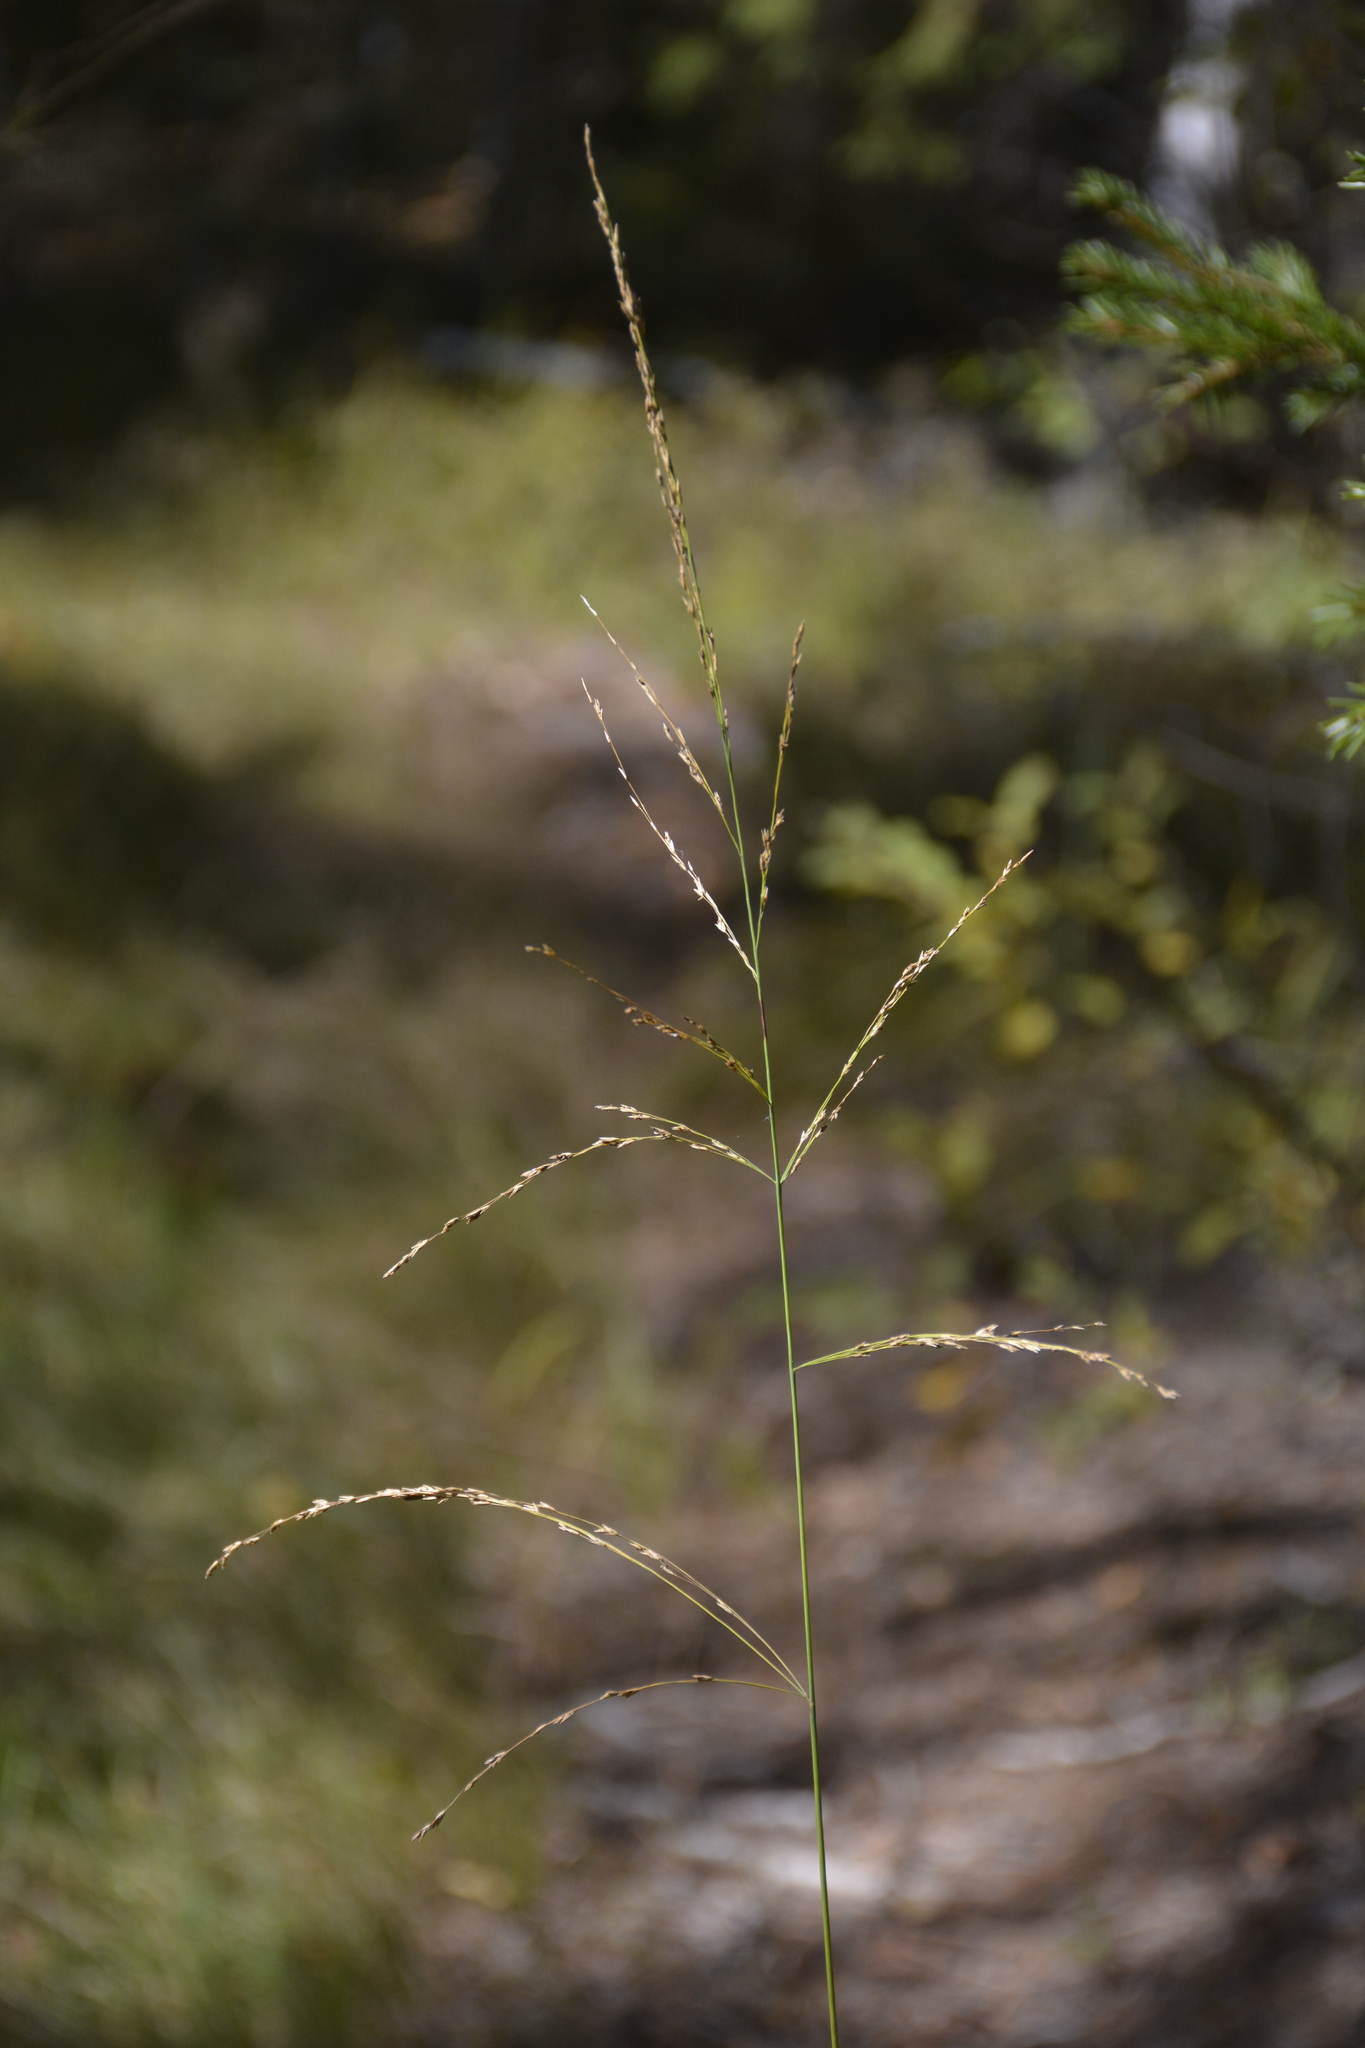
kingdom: Plantae
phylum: Tracheophyta
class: Liliopsida
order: Poales
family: Poaceae
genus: Molinia
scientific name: Molinia caerulea
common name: Purple moor-grass
